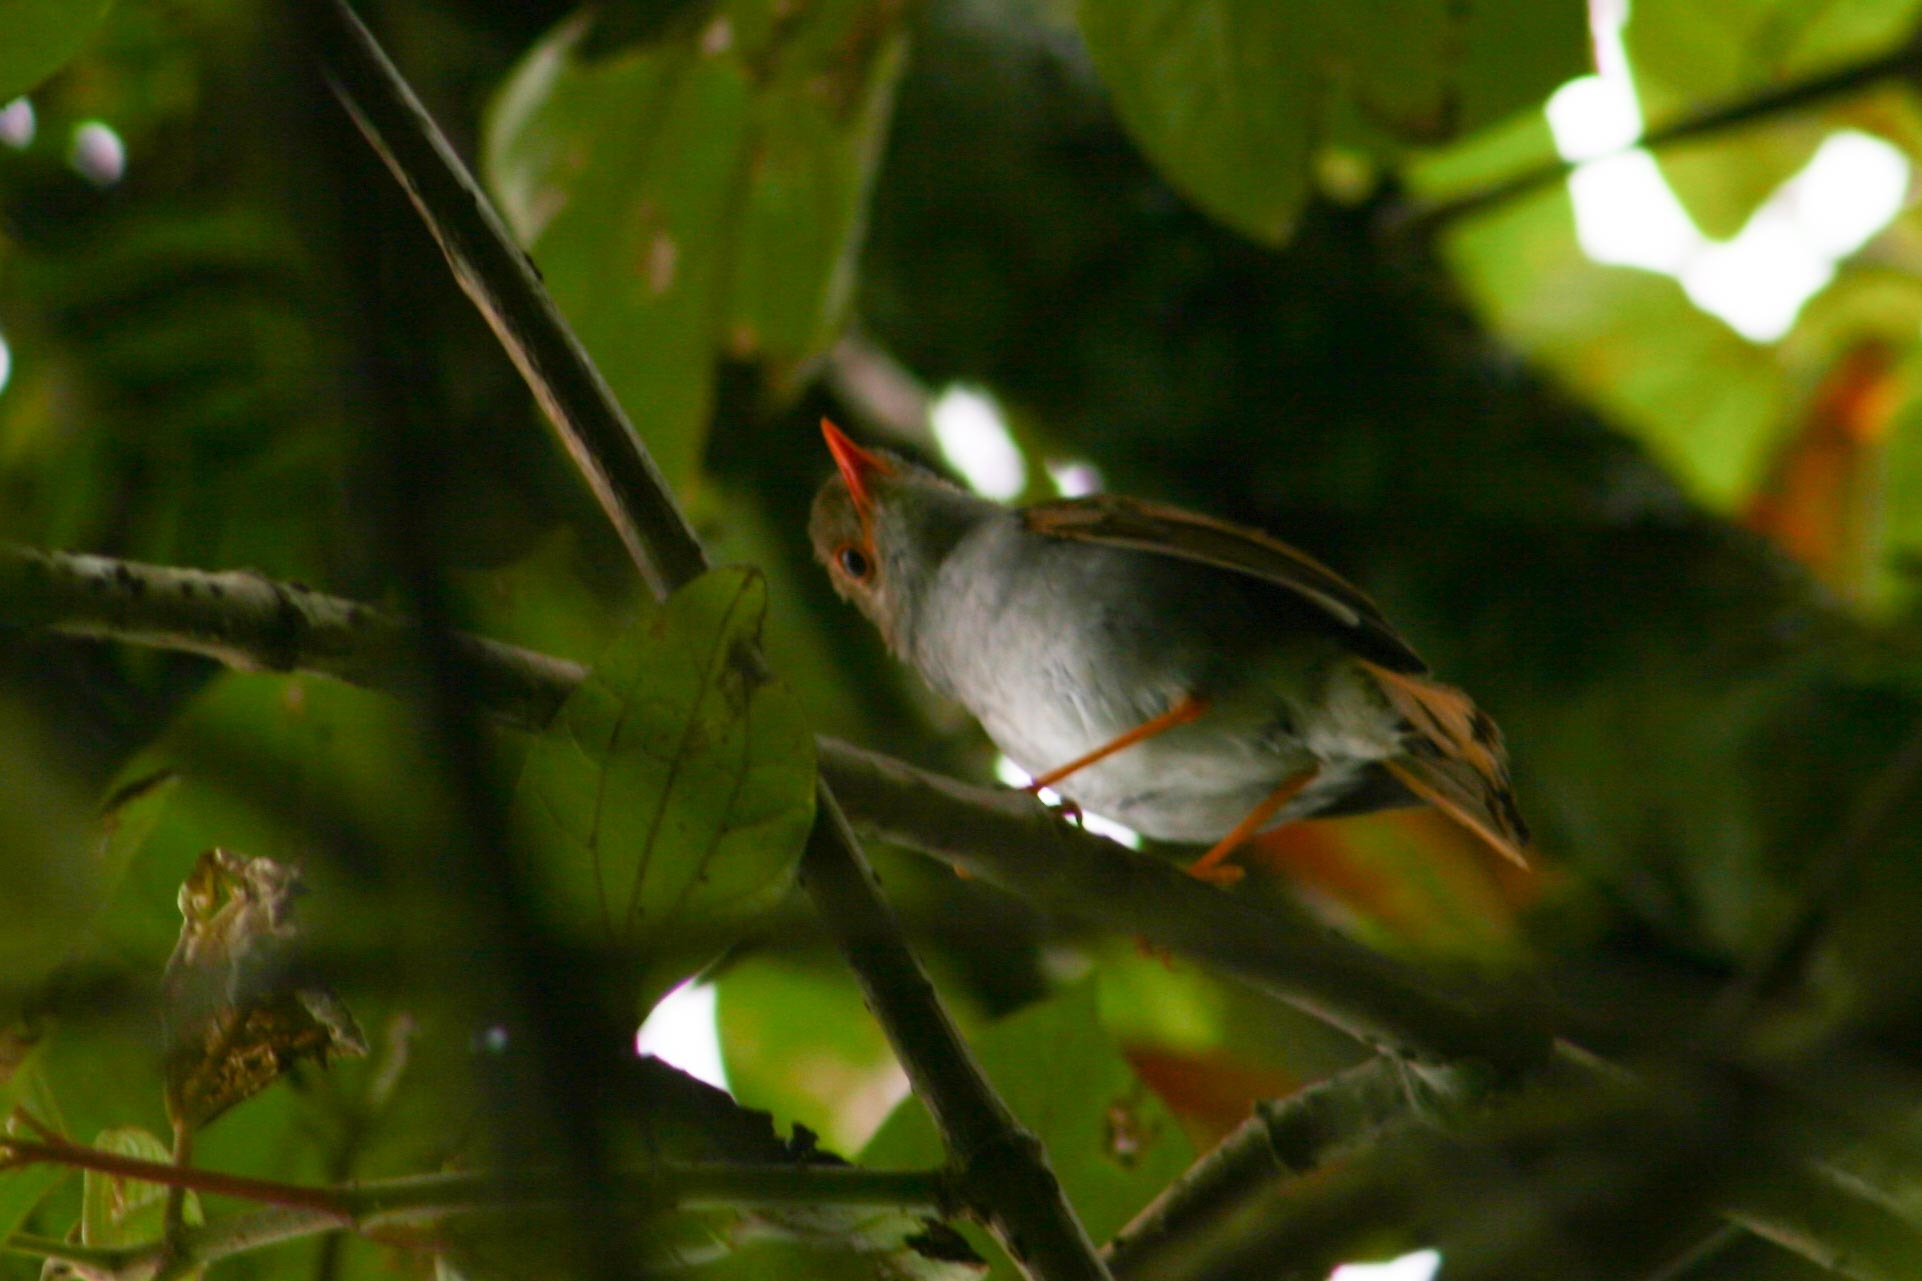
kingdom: Animalia
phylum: Chordata
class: Aves
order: Passeriformes
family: Turdidae
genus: Catharus
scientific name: Catharus aurantiirostris
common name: Orange-billed nightingale-thrush
